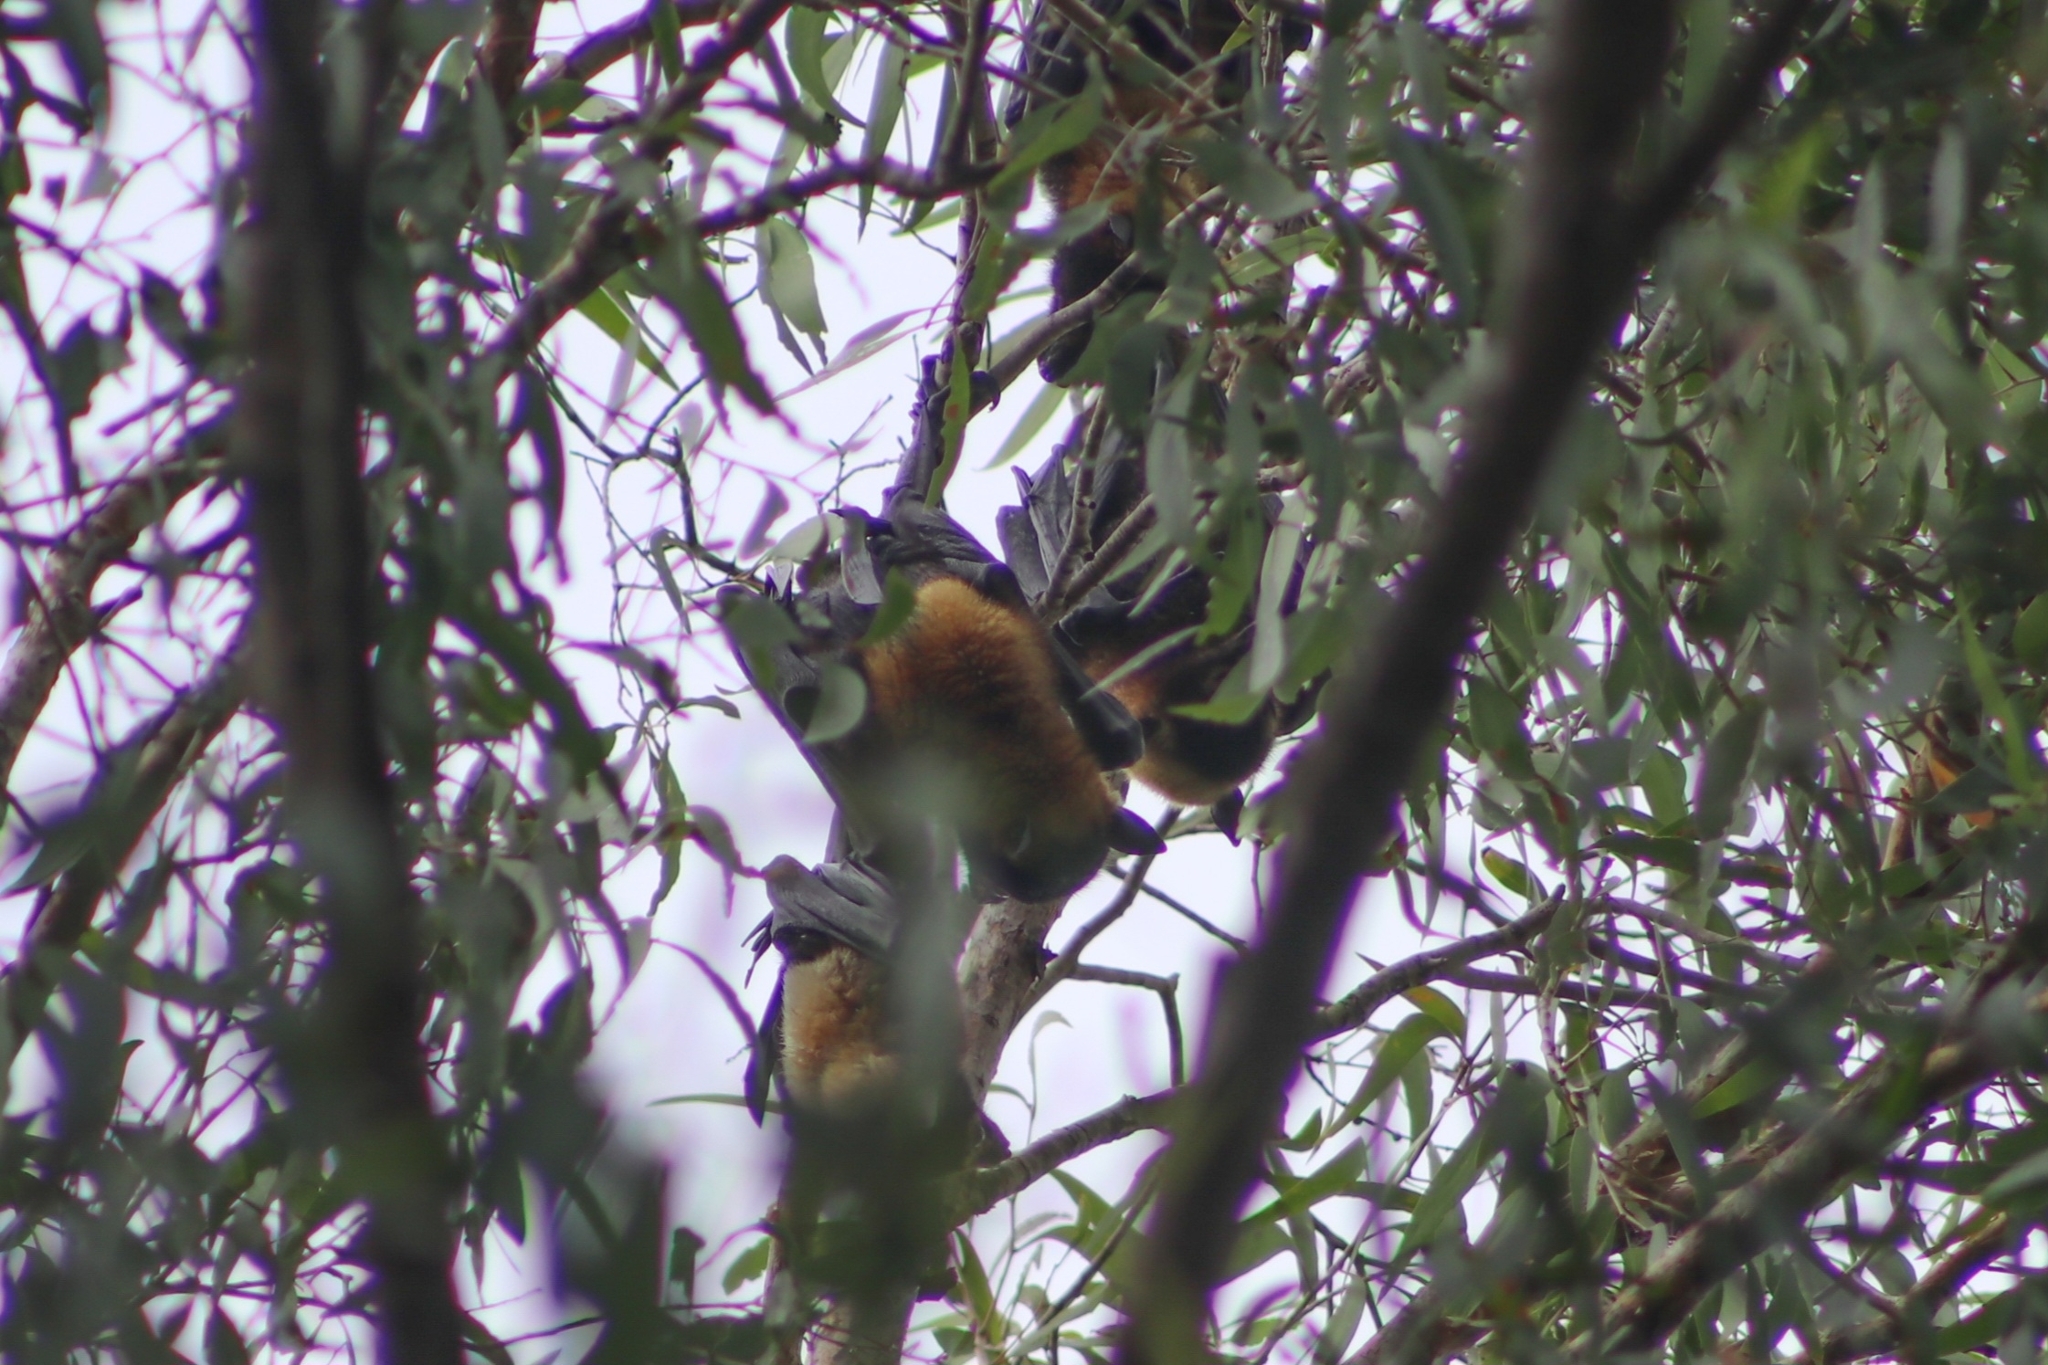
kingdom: Animalia
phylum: Chordata
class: Mammalia
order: Chiroptera
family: Pteropodidae
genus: Pteropus
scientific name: Pteropus conspicillatus
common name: Spectacled flying fox
